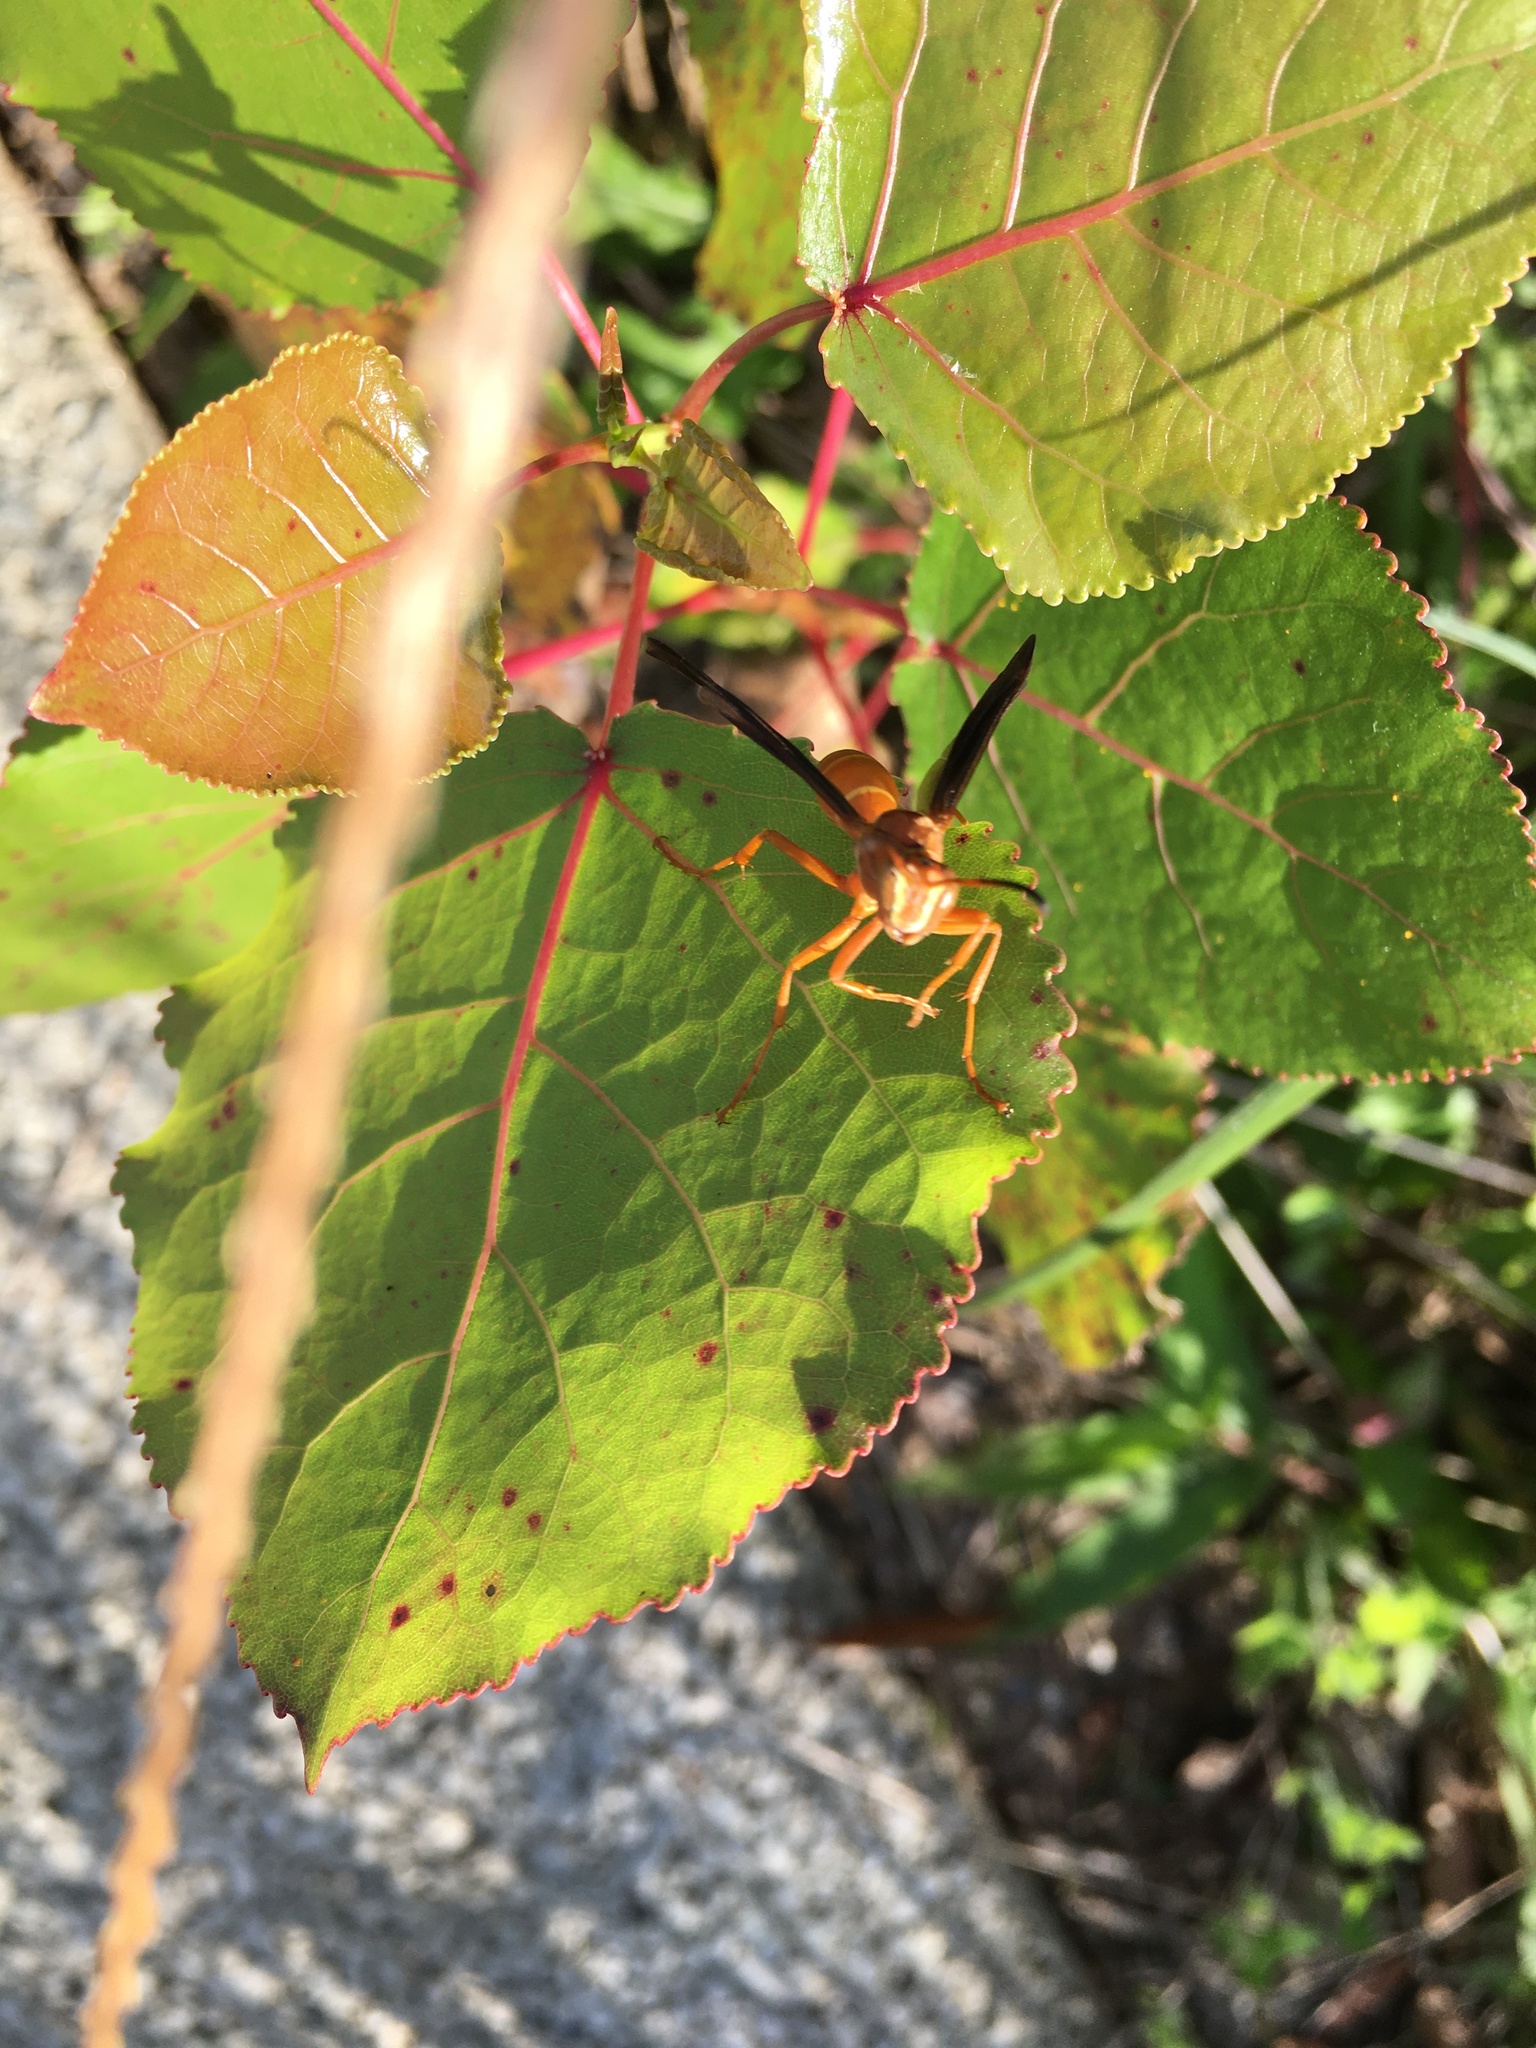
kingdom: Animalia
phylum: Arthropoda
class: Insecta
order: Hymenoptera
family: Eumenidae
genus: Polistes
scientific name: Polistes carolina
